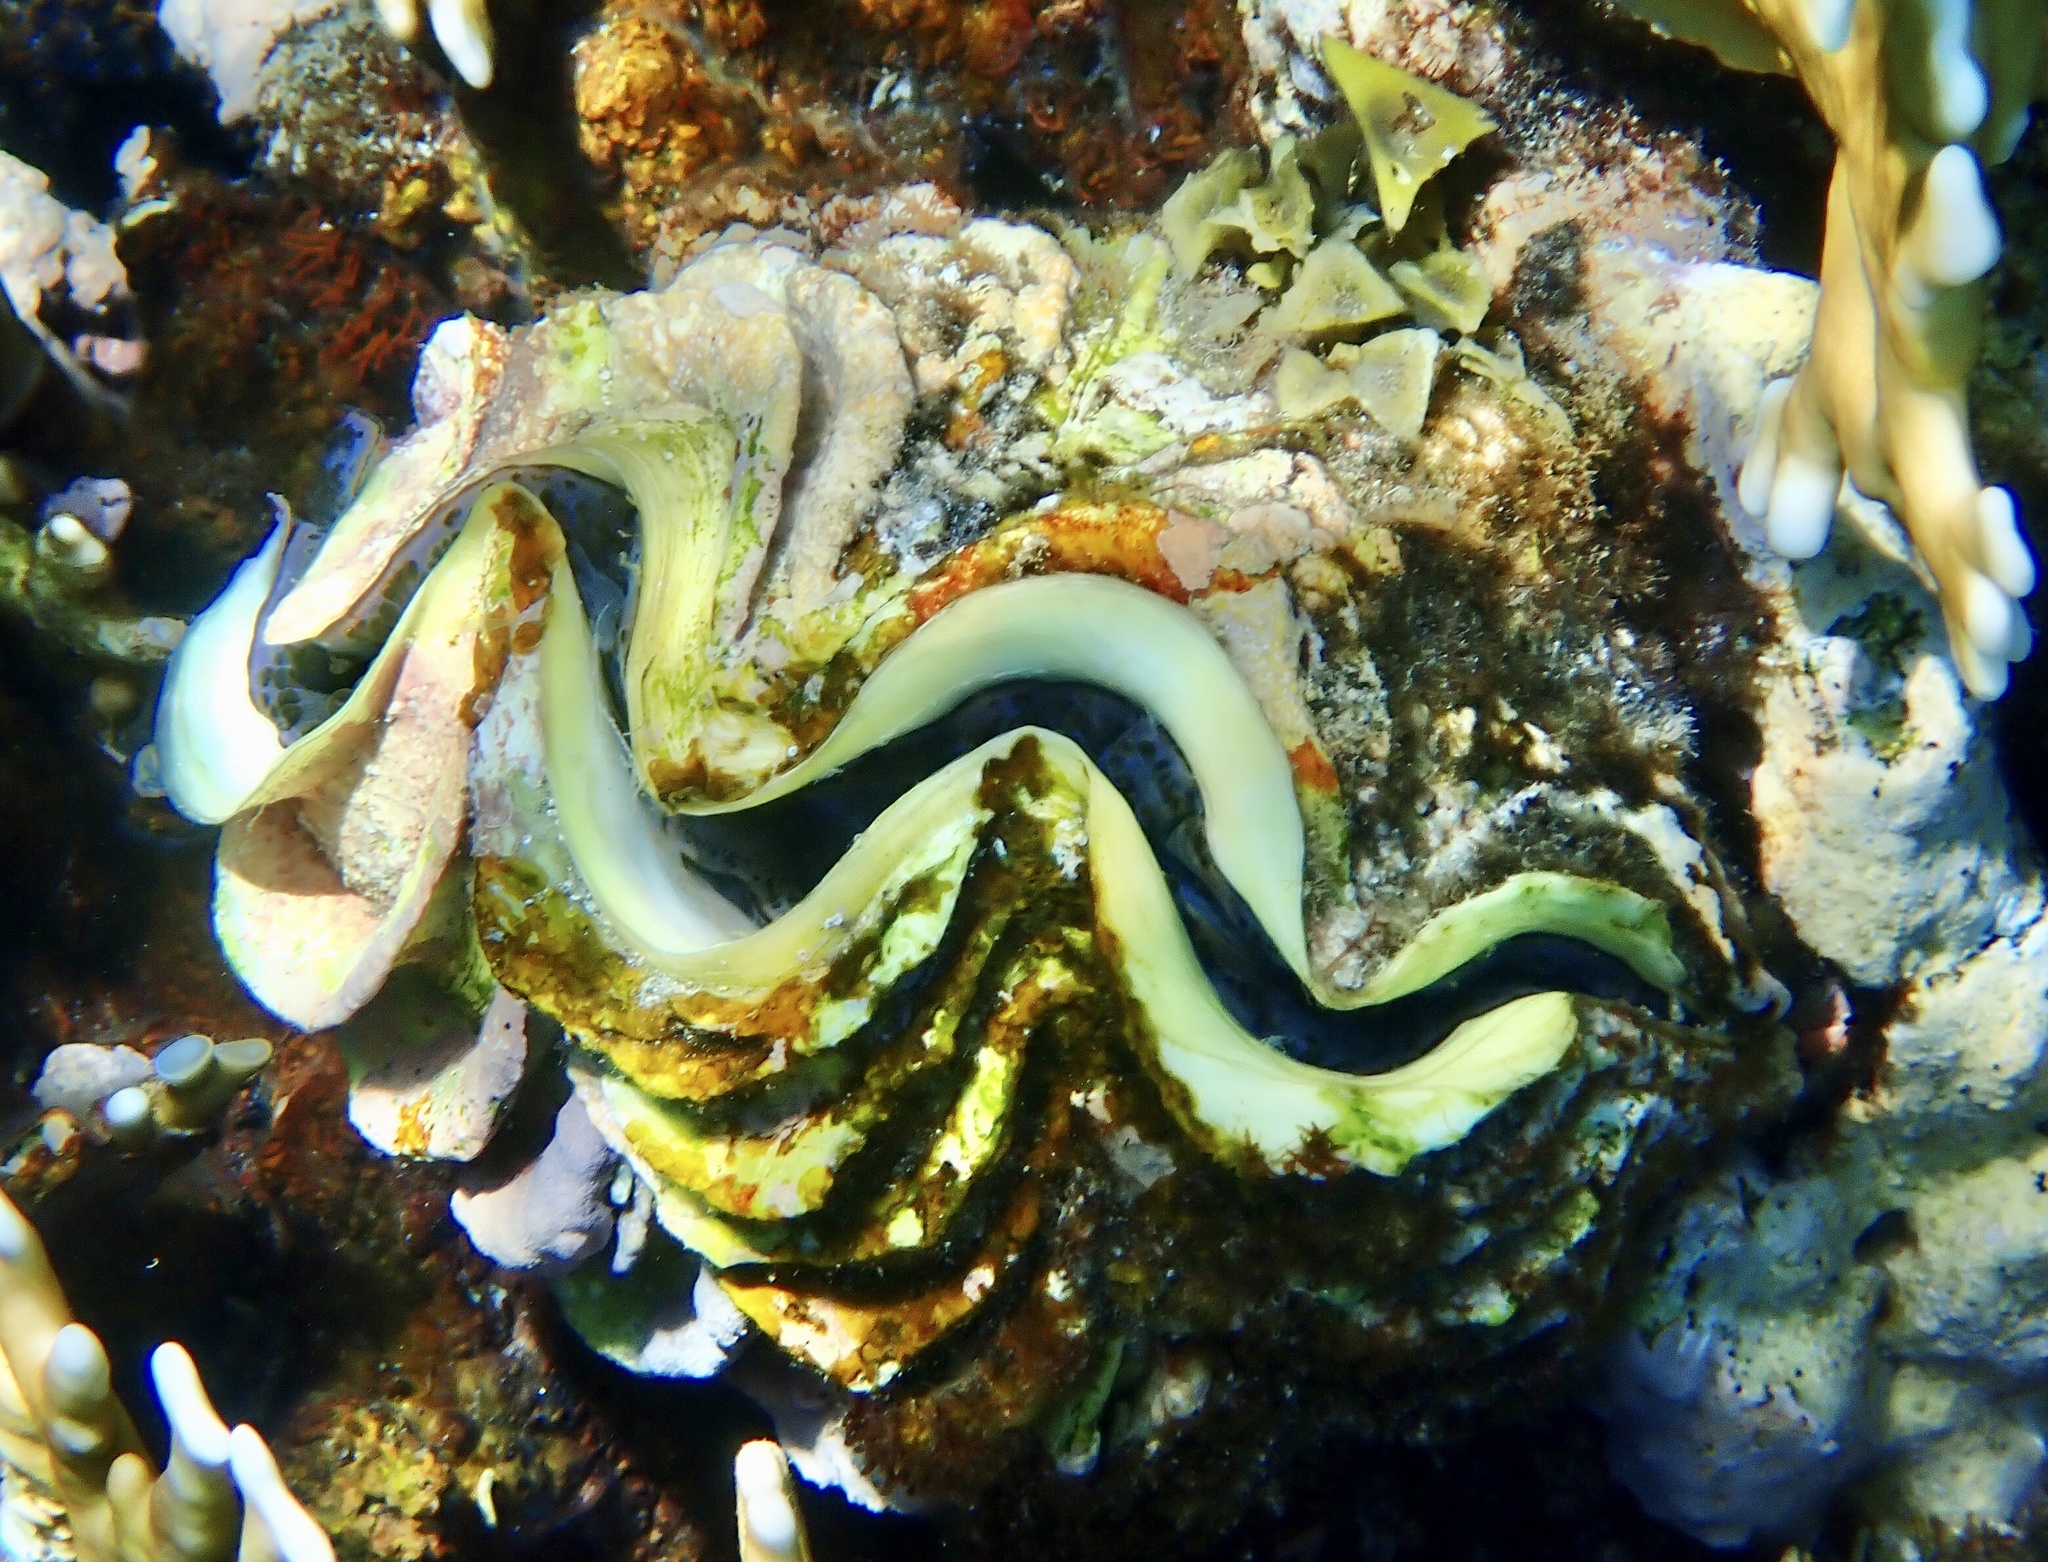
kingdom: Animalia
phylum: Mollusca
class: Bivalvia
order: Cardiida
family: Cardiidae
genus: Tridacna
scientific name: Tridacna maxima
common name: Small giant clam
